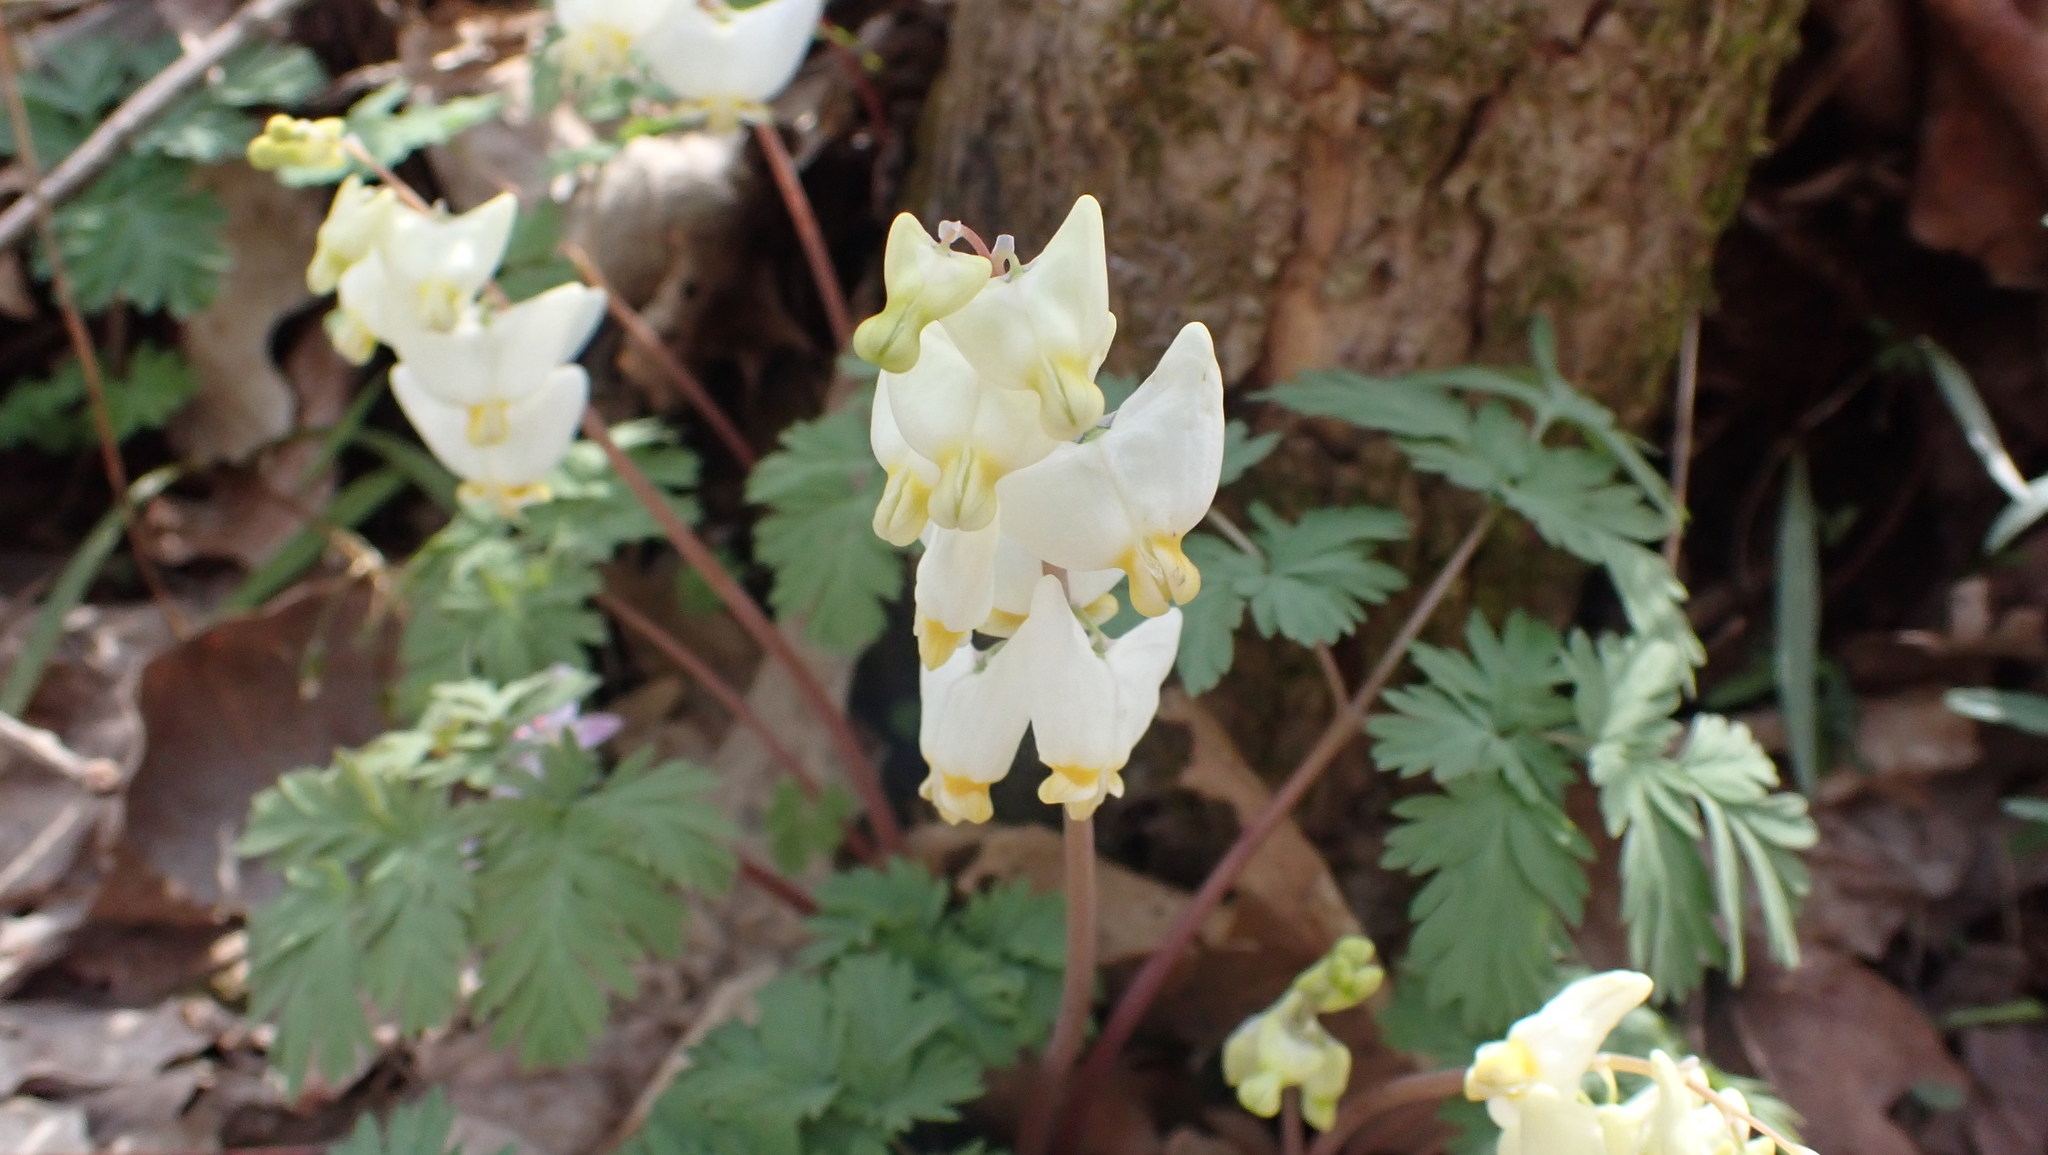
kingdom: Plantae
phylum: Tracheophyta
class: Magnoliopsida
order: Ranunculales
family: Papaveraceae
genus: Dicentra
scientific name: Dicentra cucullaria
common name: Dutchman's breeches
